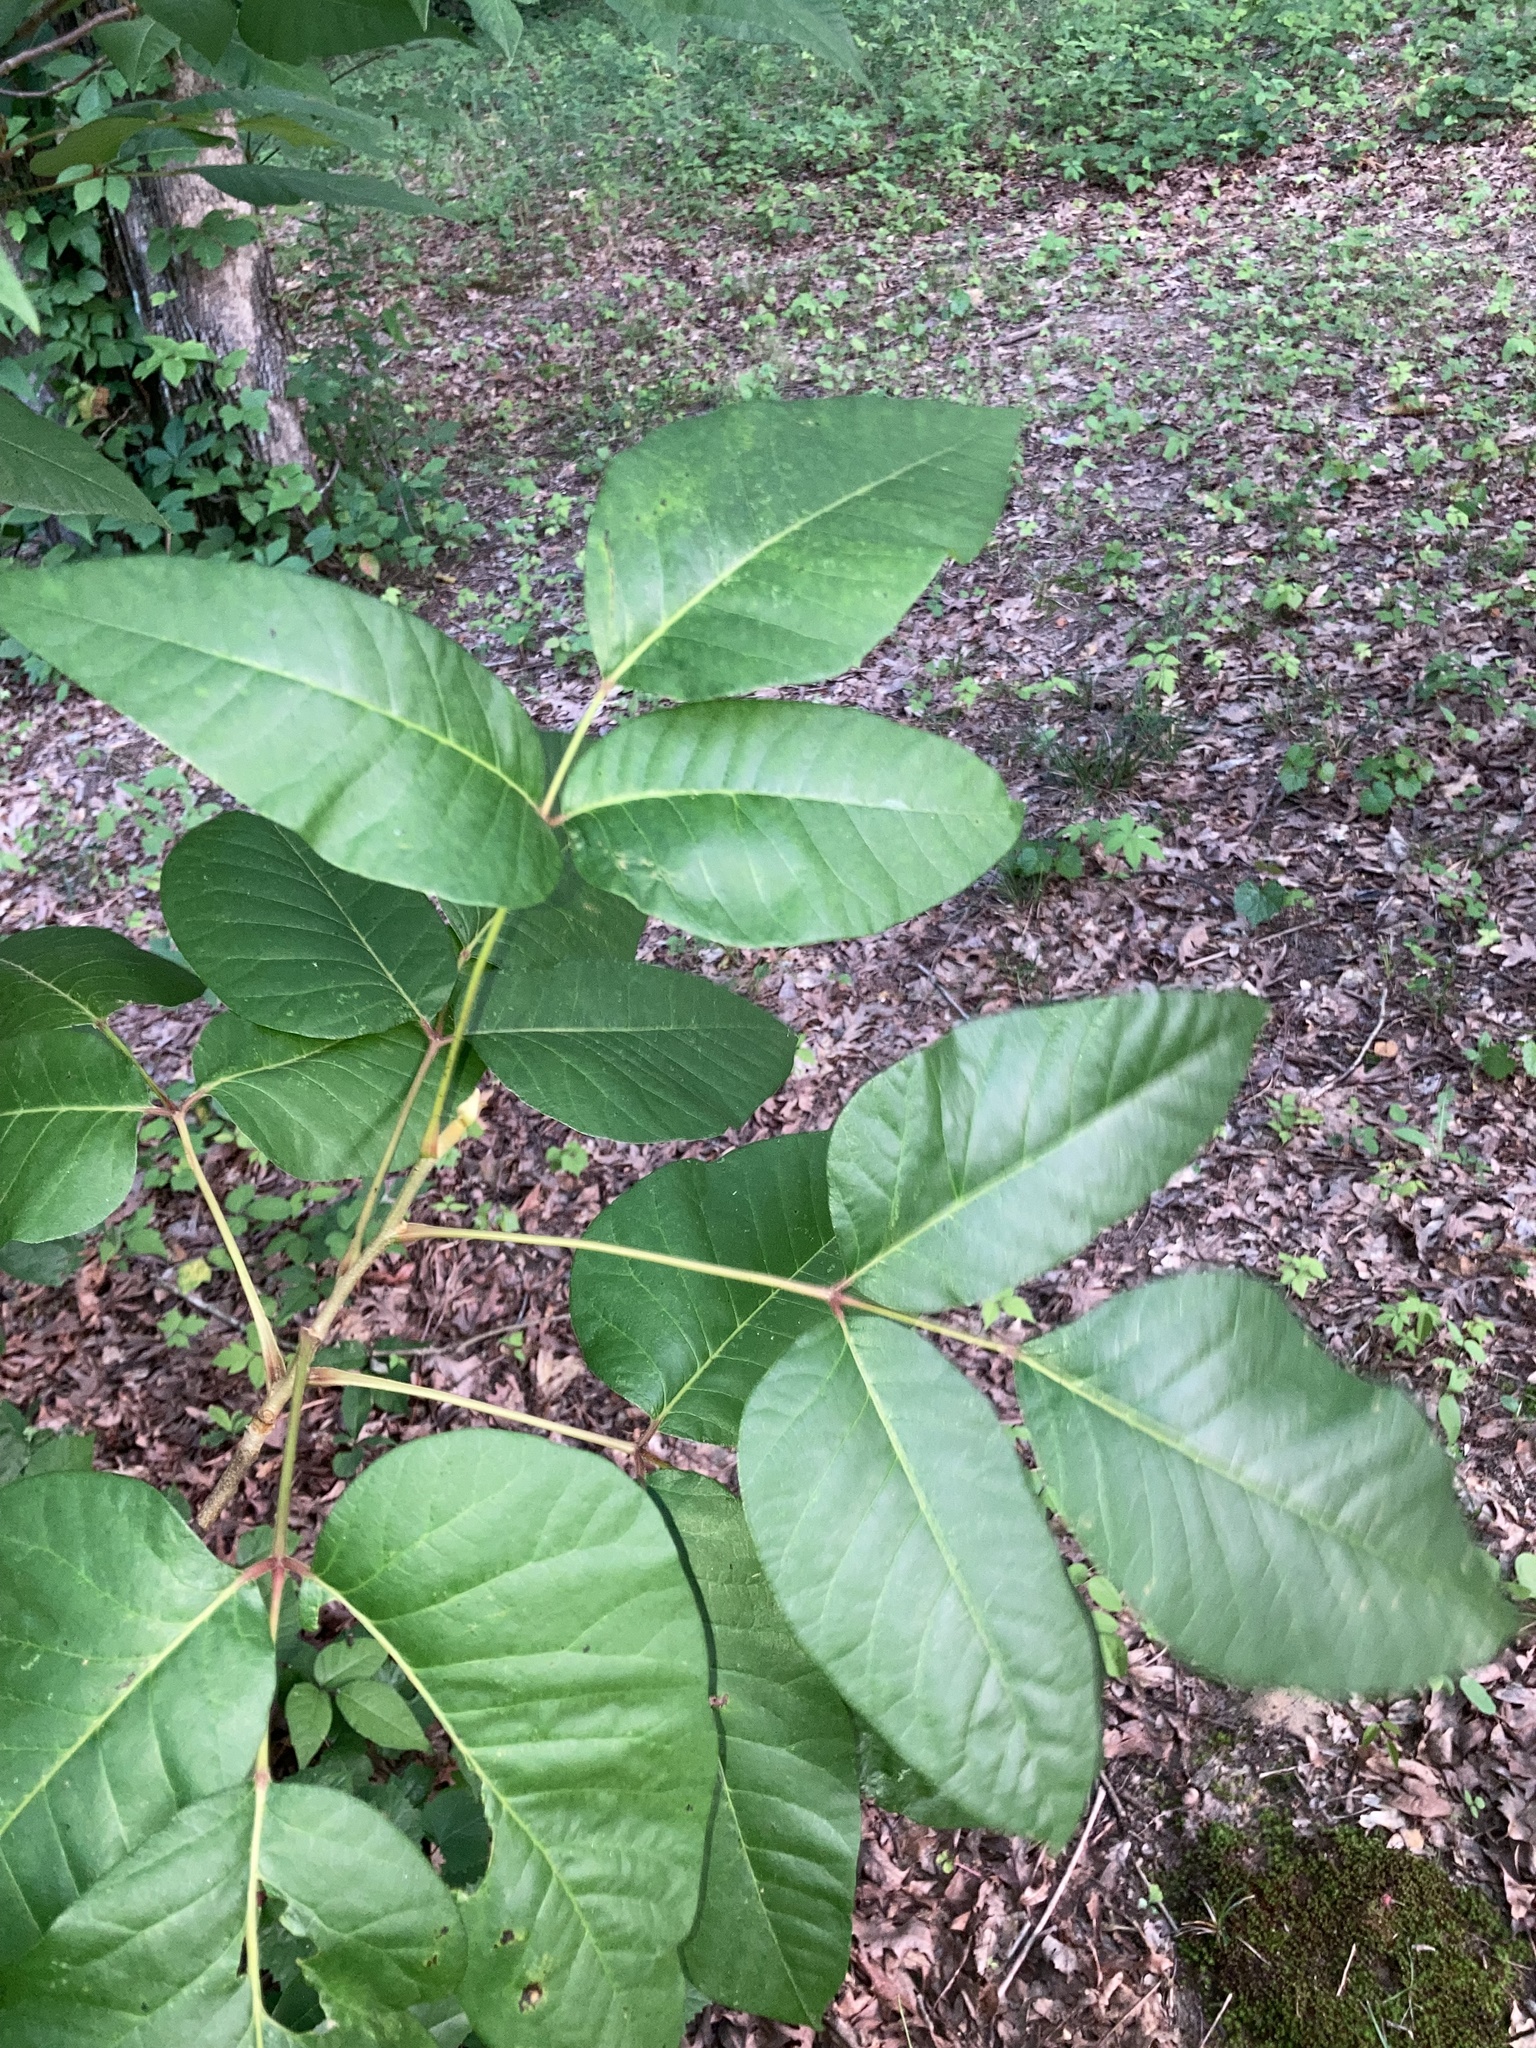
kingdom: Plantae
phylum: Tracheophyta
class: Magnoliopsida
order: Sapindales
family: Anacardiaceae
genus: Toxicodendron
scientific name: Toxicodendron radicans
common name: Poison ivy
